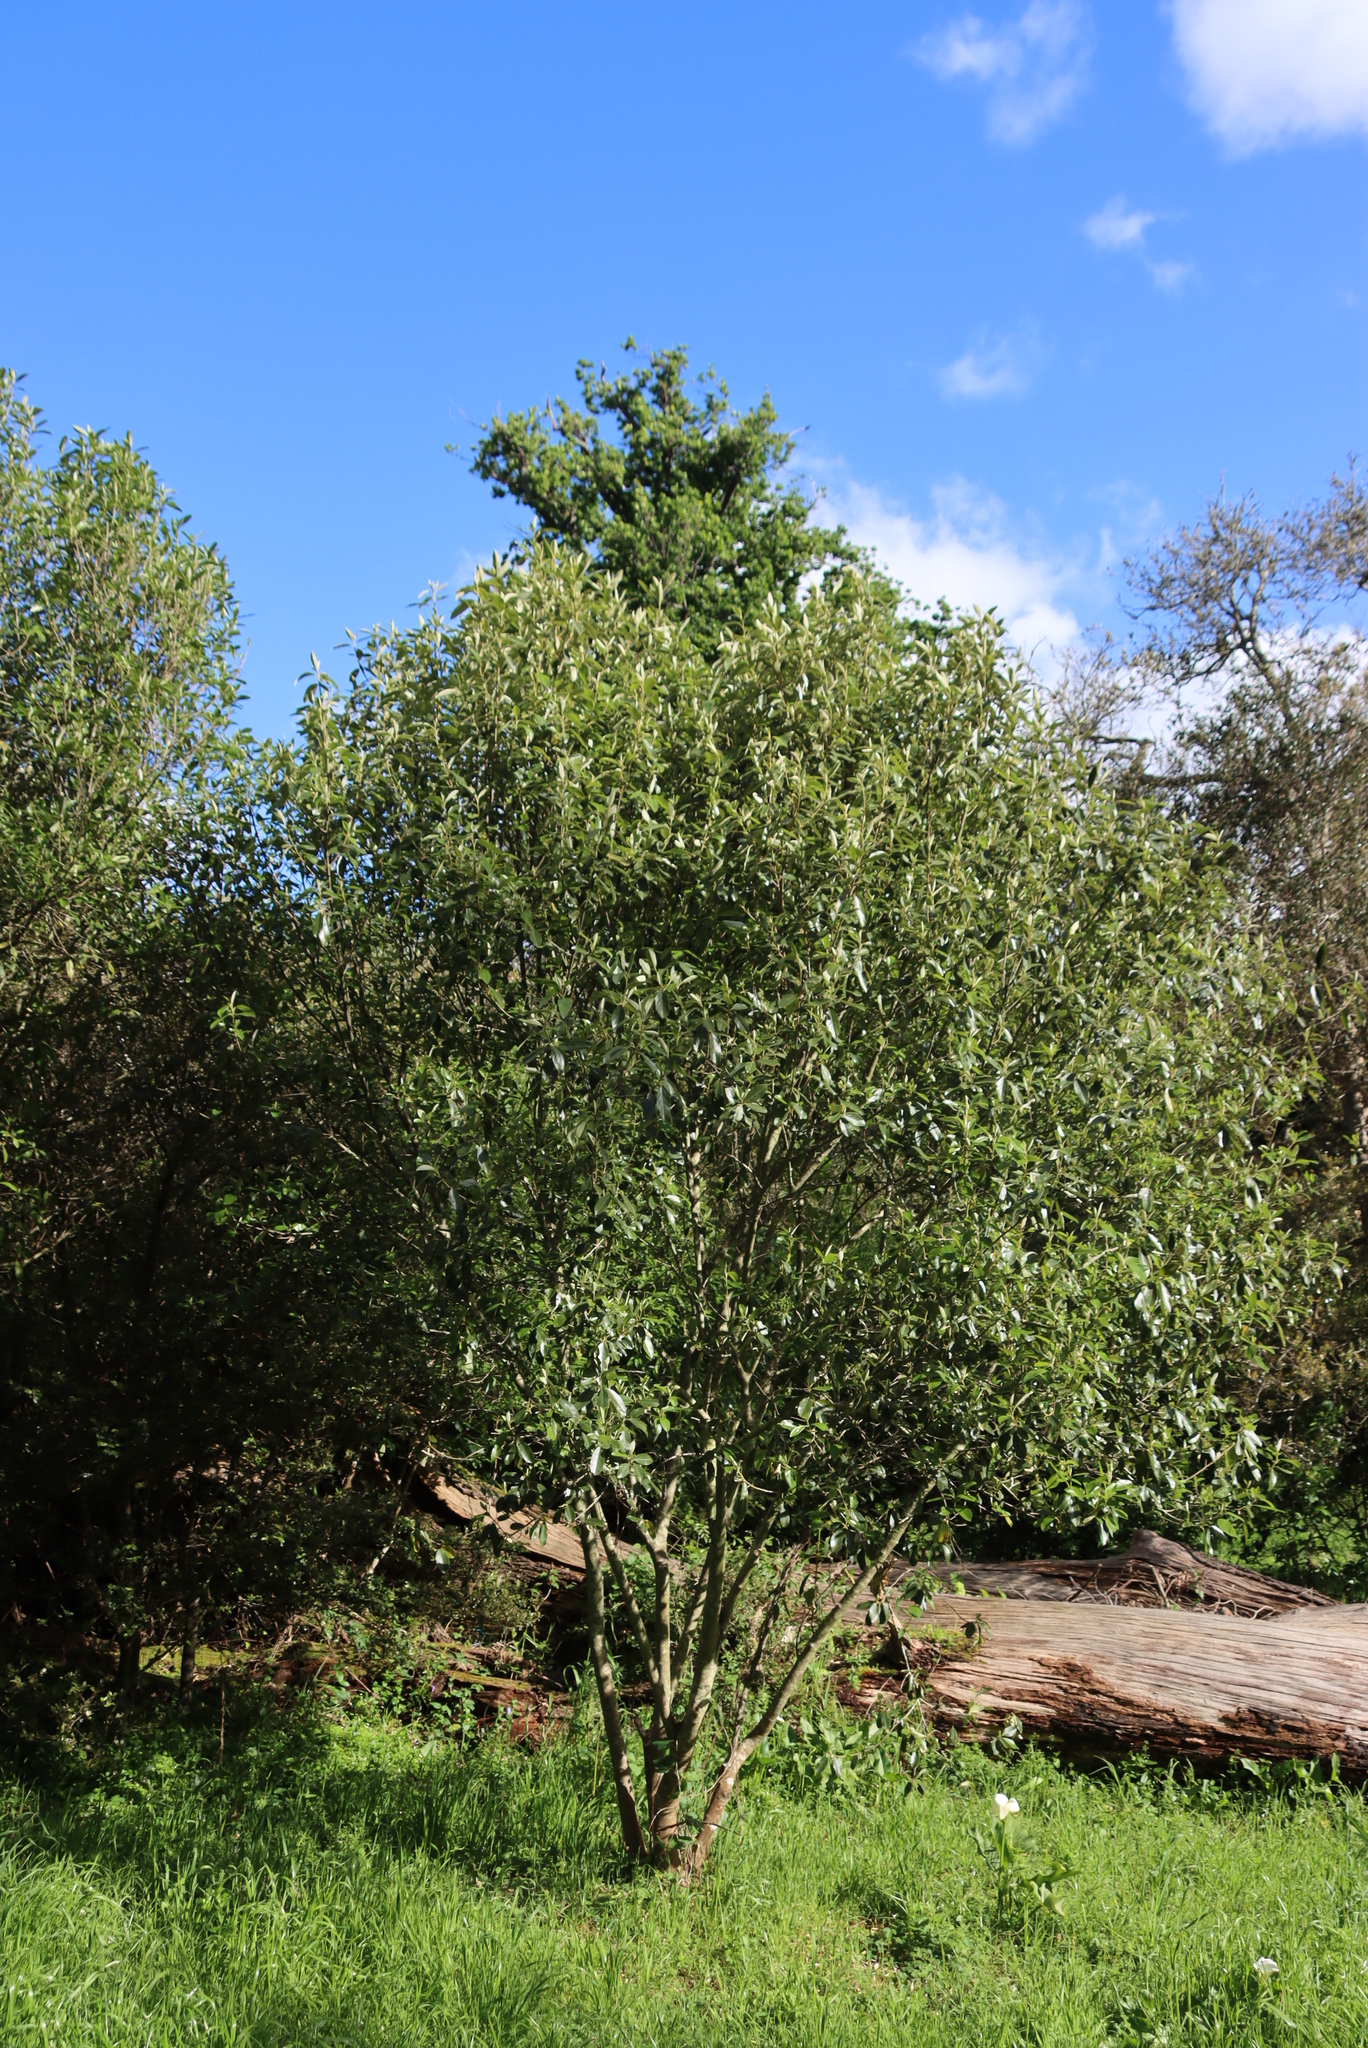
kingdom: Plantae
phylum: Tracheophyta
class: Magnoliopsida
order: Malpighiales
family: Achariaceae
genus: Kiggelaria
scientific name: Kiggelaria africana
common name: Wild peach
